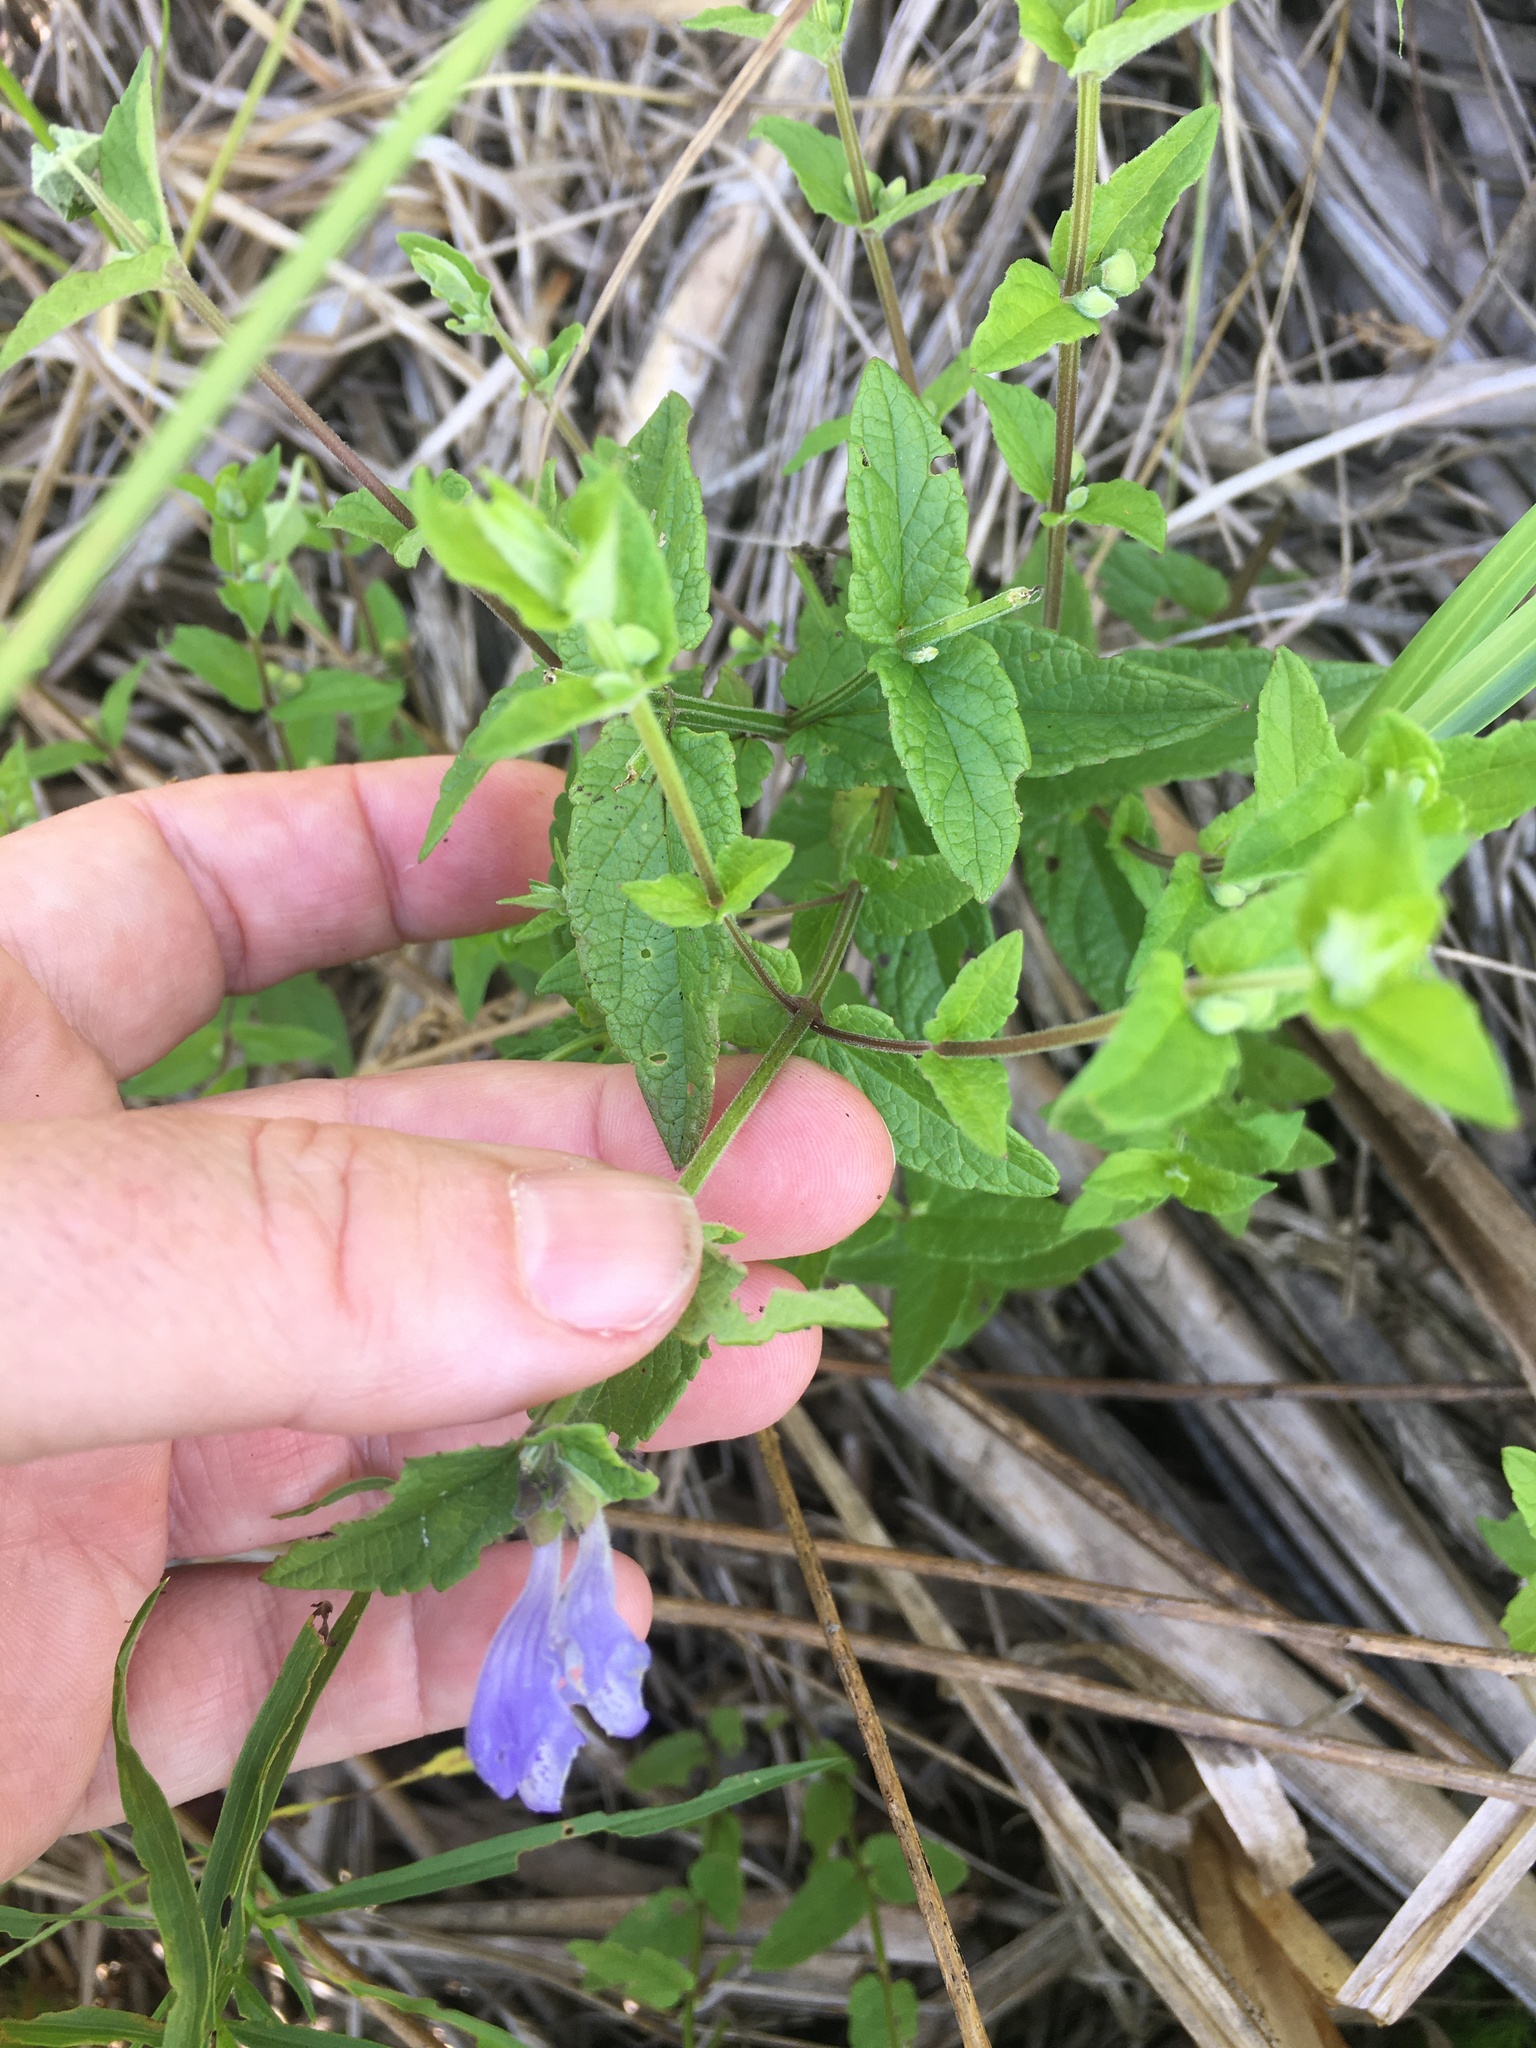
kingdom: Plantae
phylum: Tracheophyta
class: Magnoliopsida
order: Lamiales
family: Lamiaceae
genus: Scutellaria
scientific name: Scutellaria galericulata
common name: Skullcap
